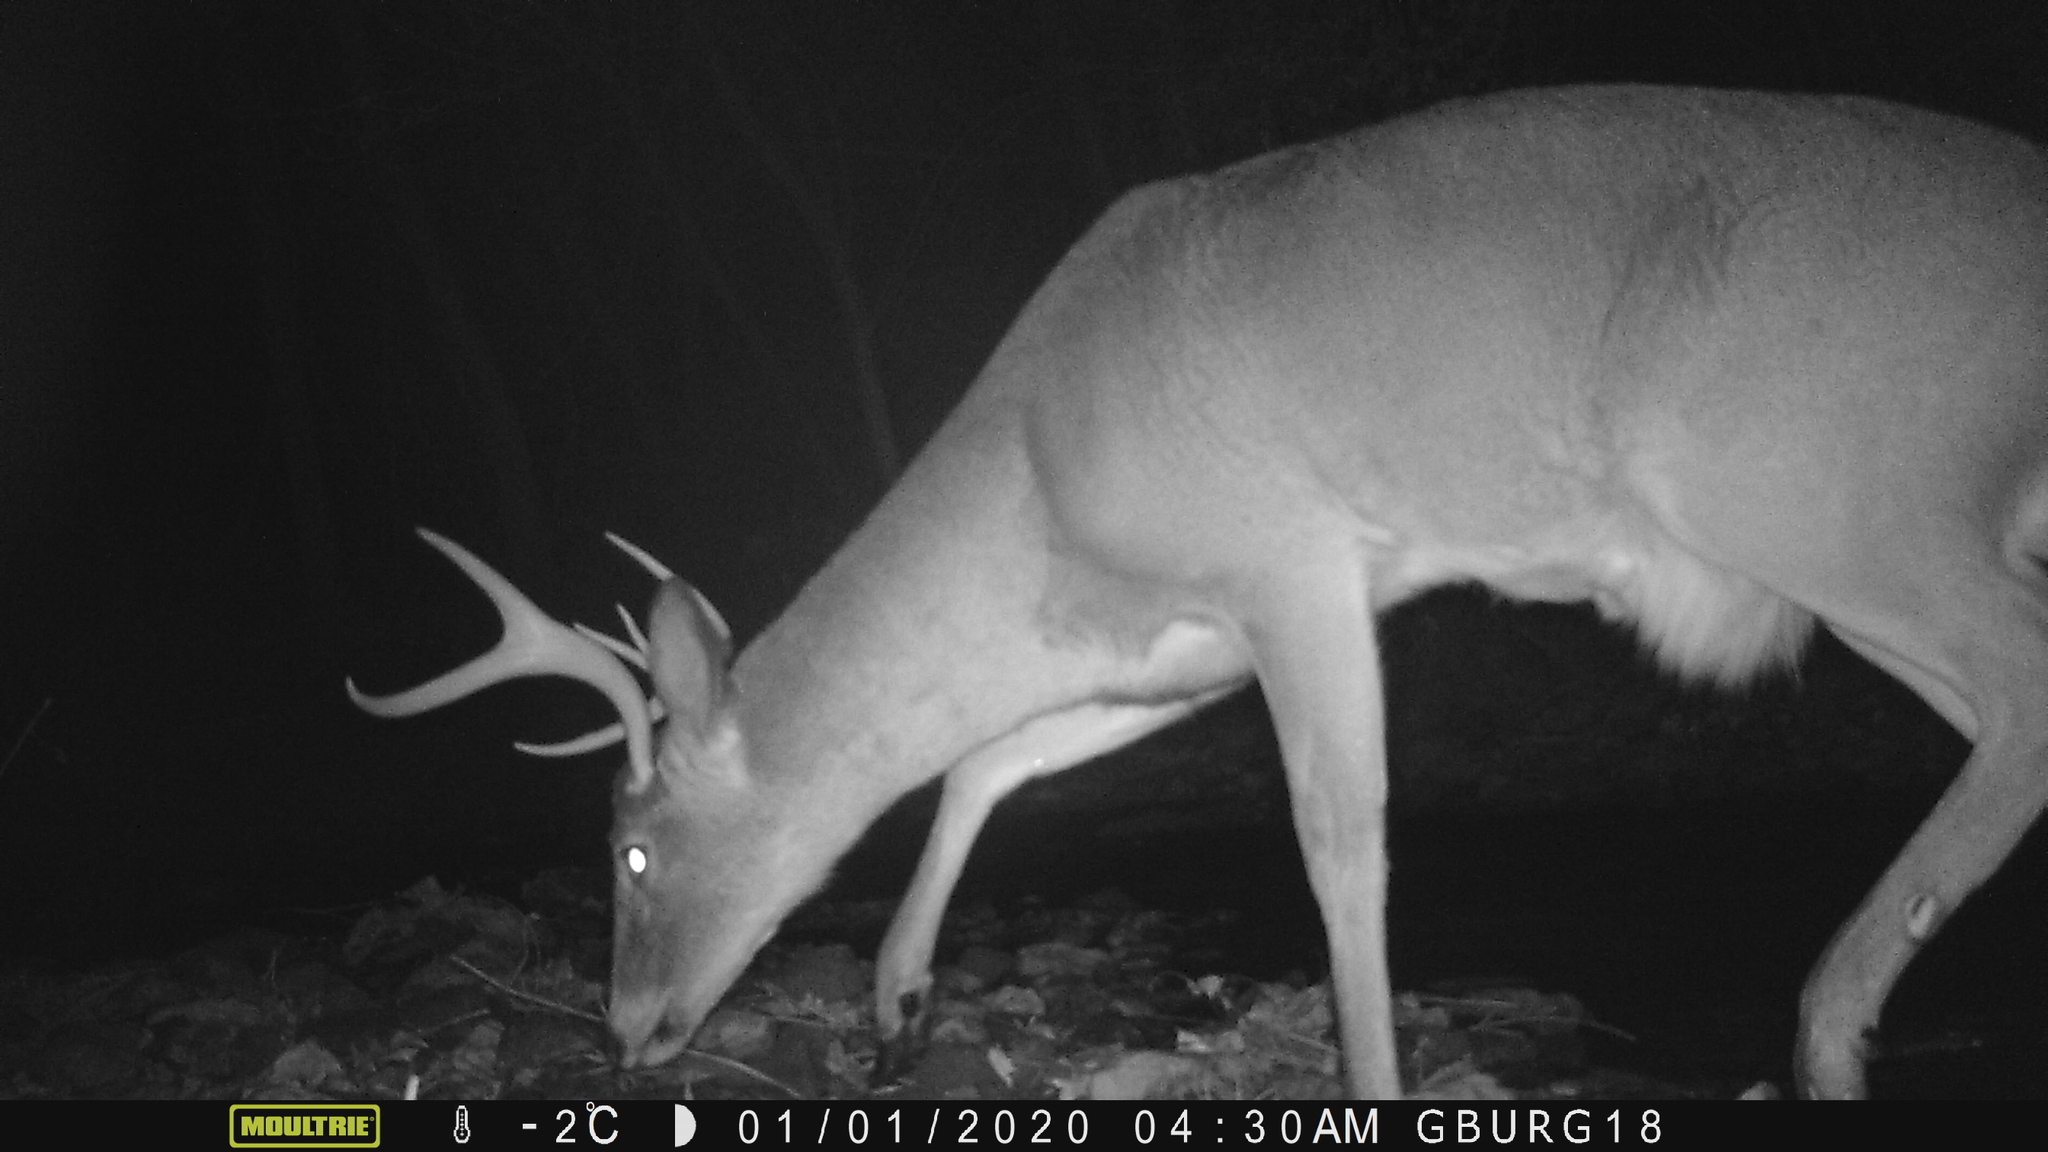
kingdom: Animalia
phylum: Chordata
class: Mammalia
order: Artiodactyla
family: Cervidae
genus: Odocoileus
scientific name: Odocoileus virginianus
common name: White-tailed deer
